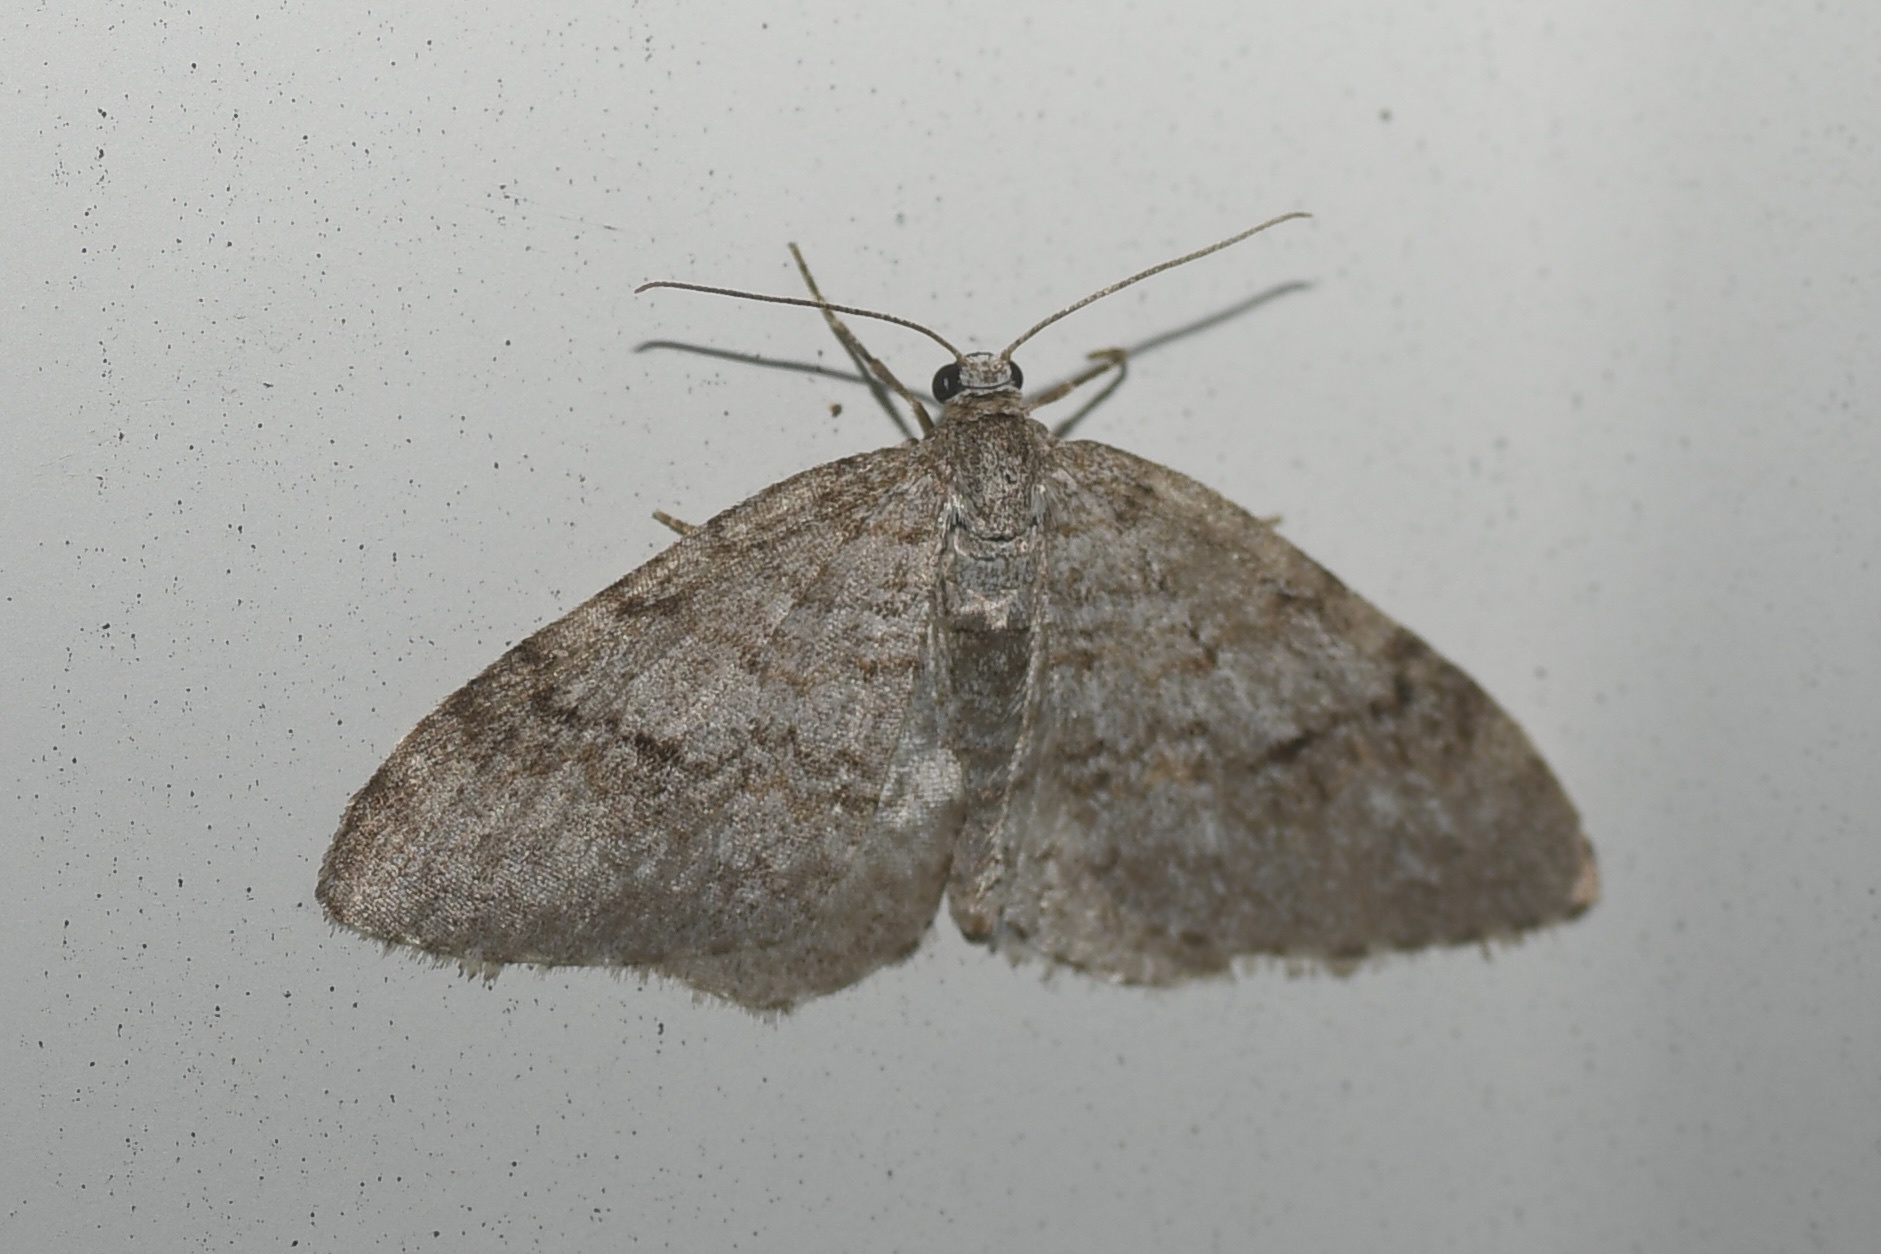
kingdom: Animalia
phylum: Arthropoda
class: Insecta
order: Lepidoptera
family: Geometridae
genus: Venusia
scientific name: Venusia comptaria
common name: Brown-shaded carpet
